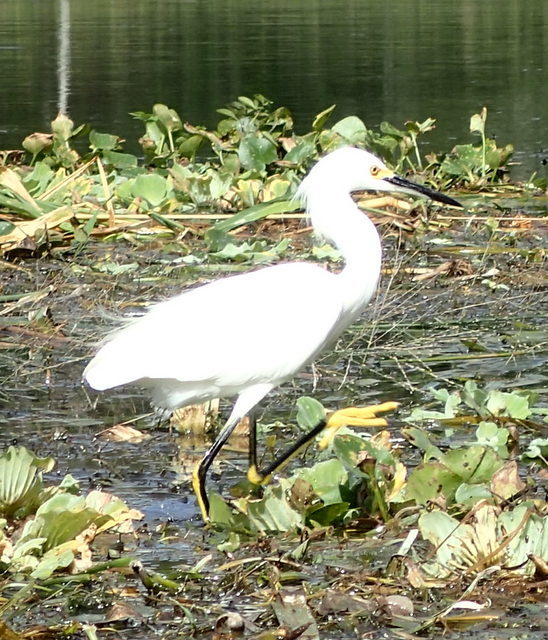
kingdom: Animalia
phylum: Chordata
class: Aves
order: Pelecaniformes
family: Ardeidae
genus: Egretta
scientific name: Egretta thula
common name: Snowy egret
